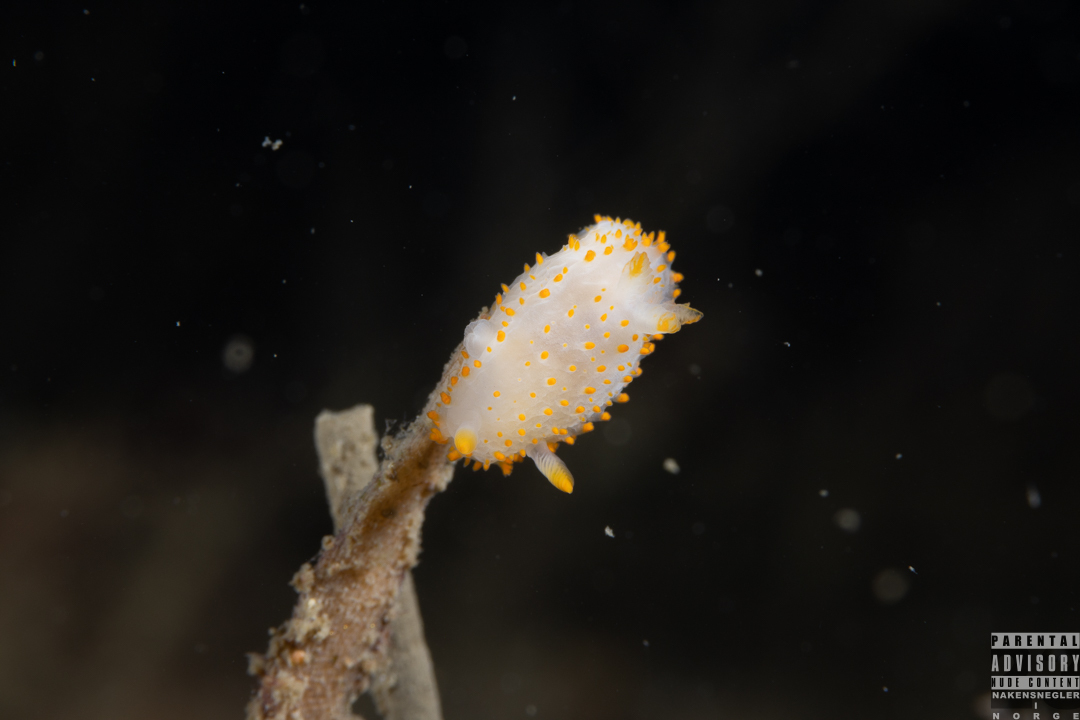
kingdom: Animalia
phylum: Mollusca
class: Gastropoda
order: Nudibranchia
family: Polyceridae
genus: Crimora
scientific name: Crimora papillata
